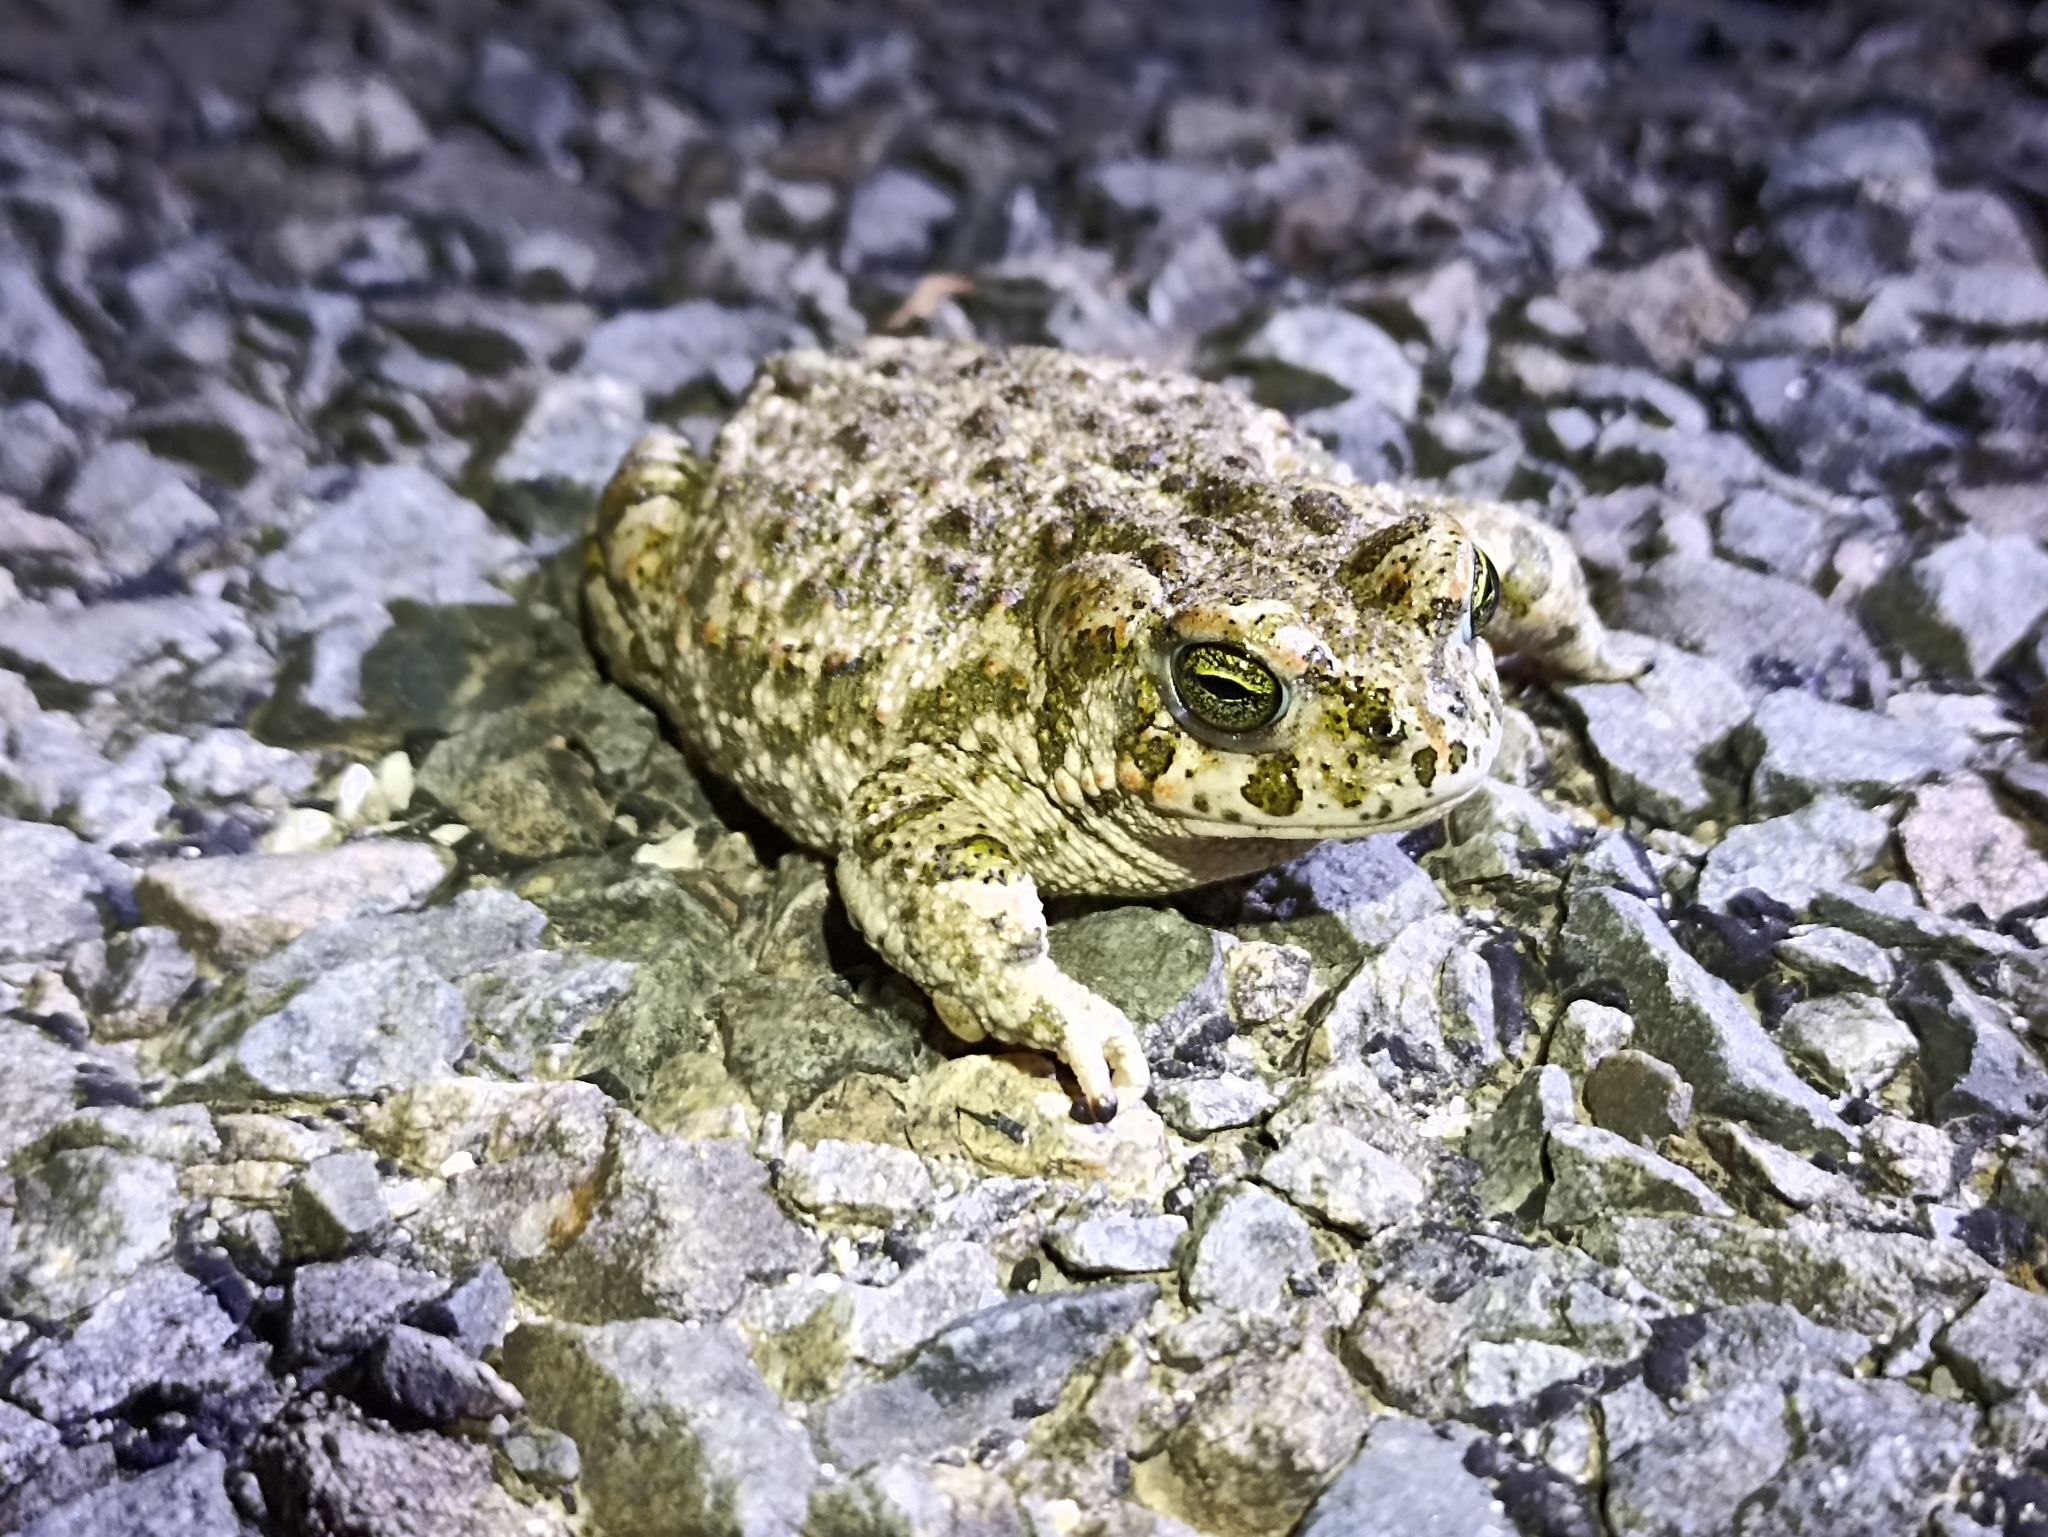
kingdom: Animalia
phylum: Chordata
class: Amphibia
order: Anura
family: Bufonidae
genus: Epidalea
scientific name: Epidalea calamita
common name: Natterjack toad
